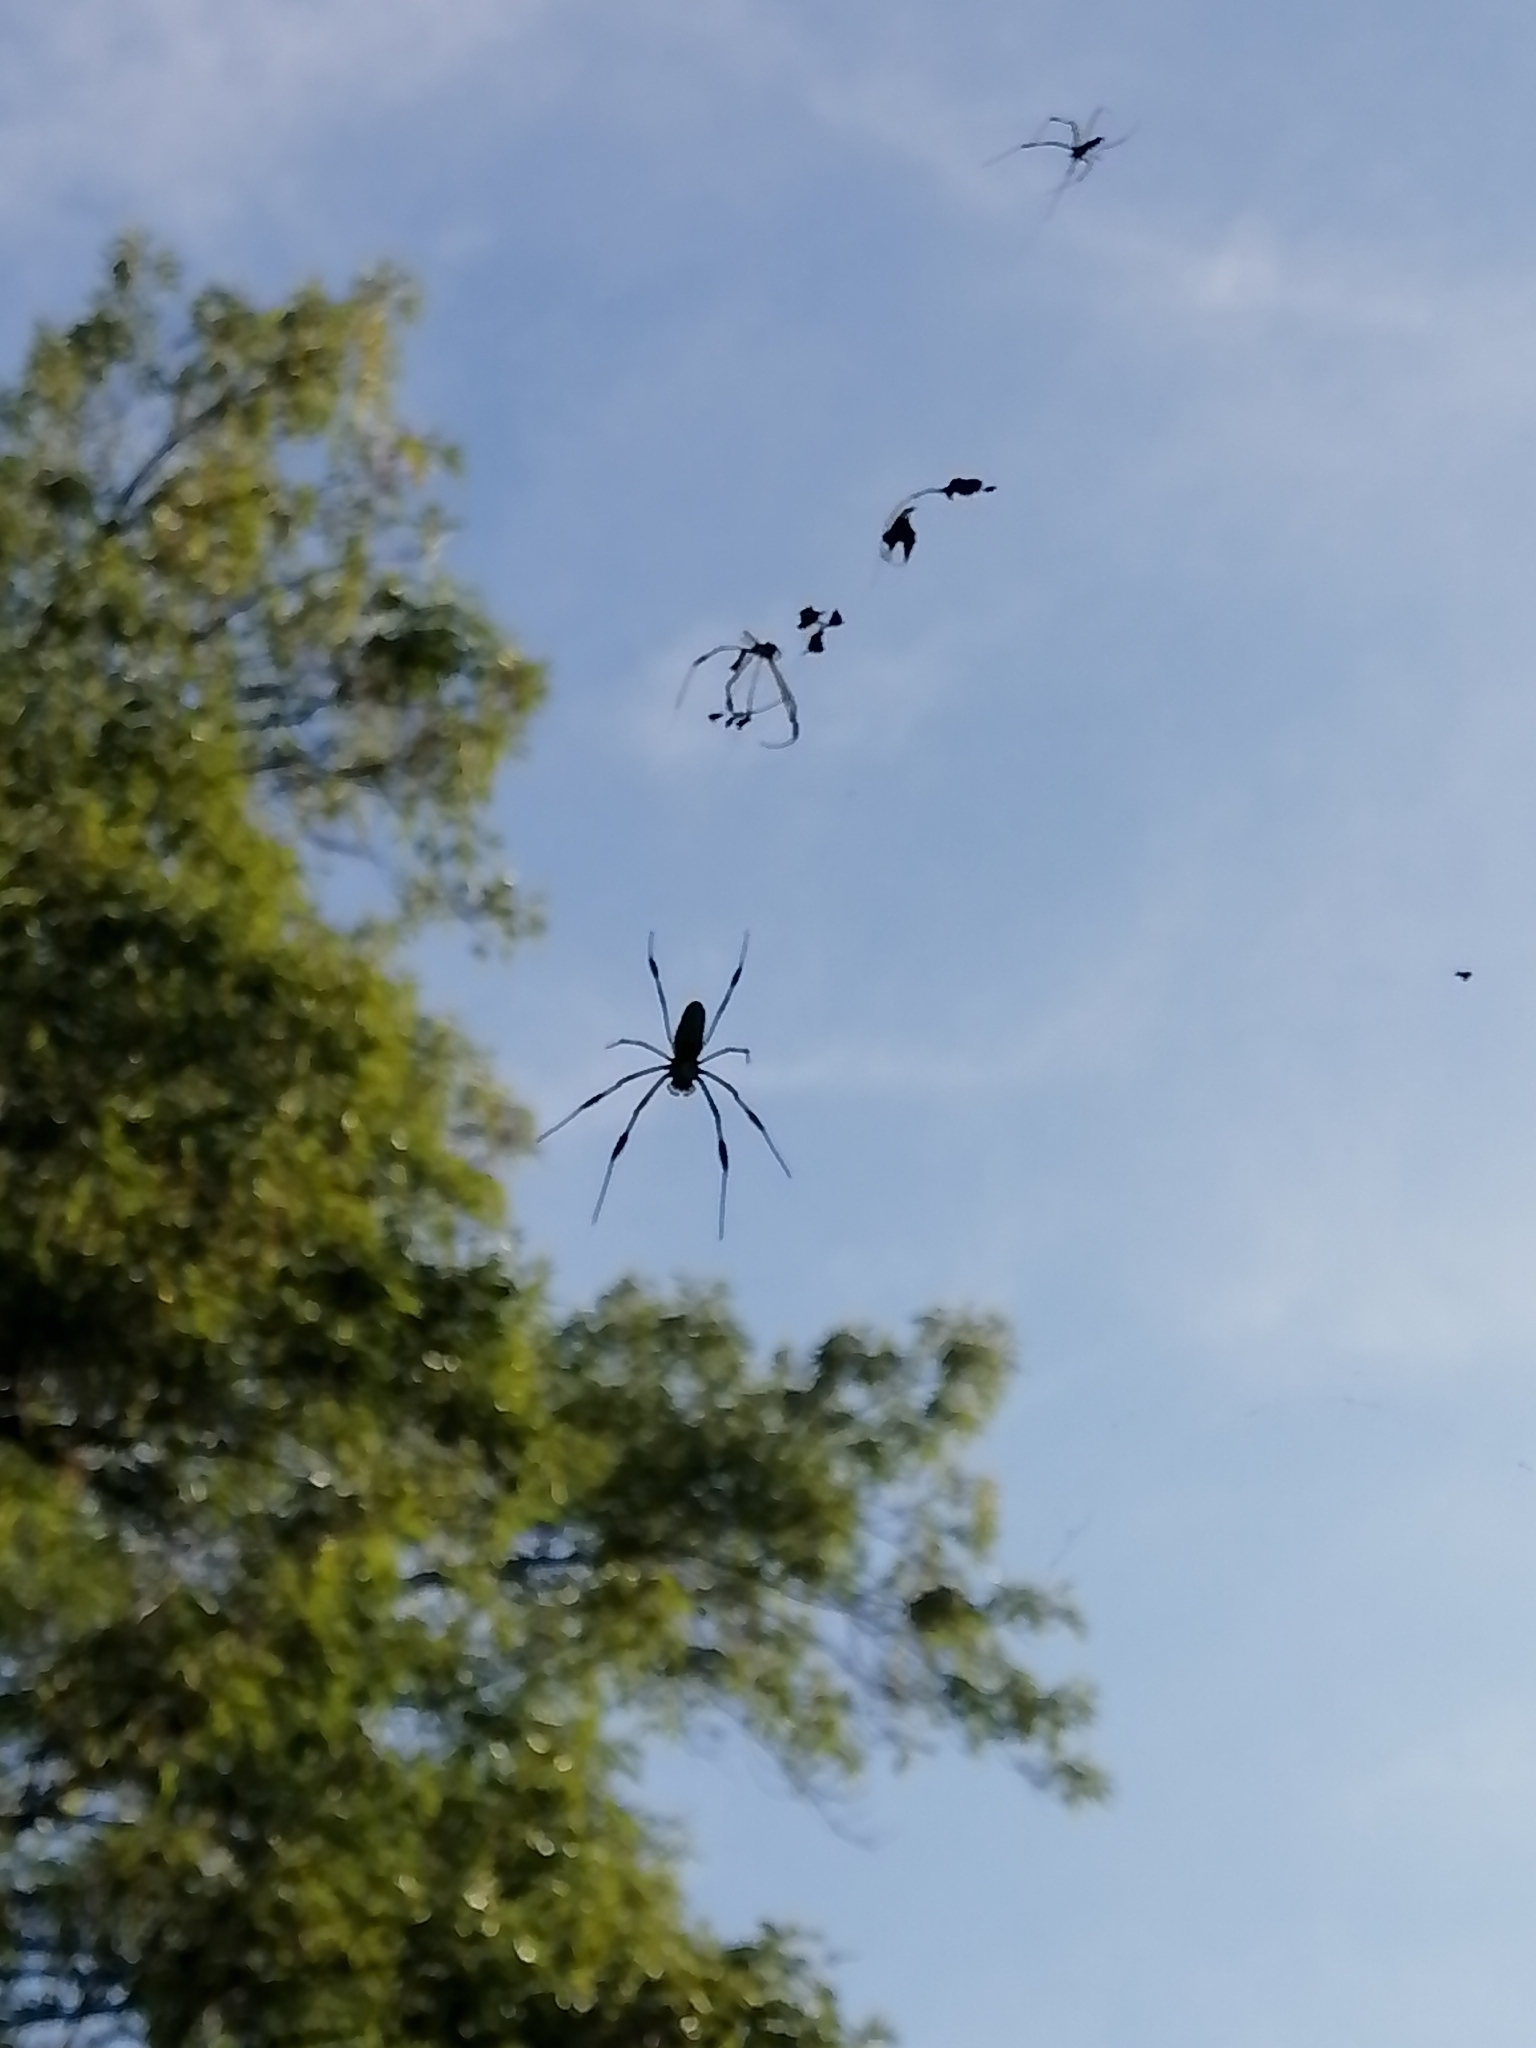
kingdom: Animalia
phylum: Arthropoda
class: Arachnida
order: Araneae
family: Araneidae
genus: Trichonephila
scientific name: Trichonephila clavipes
